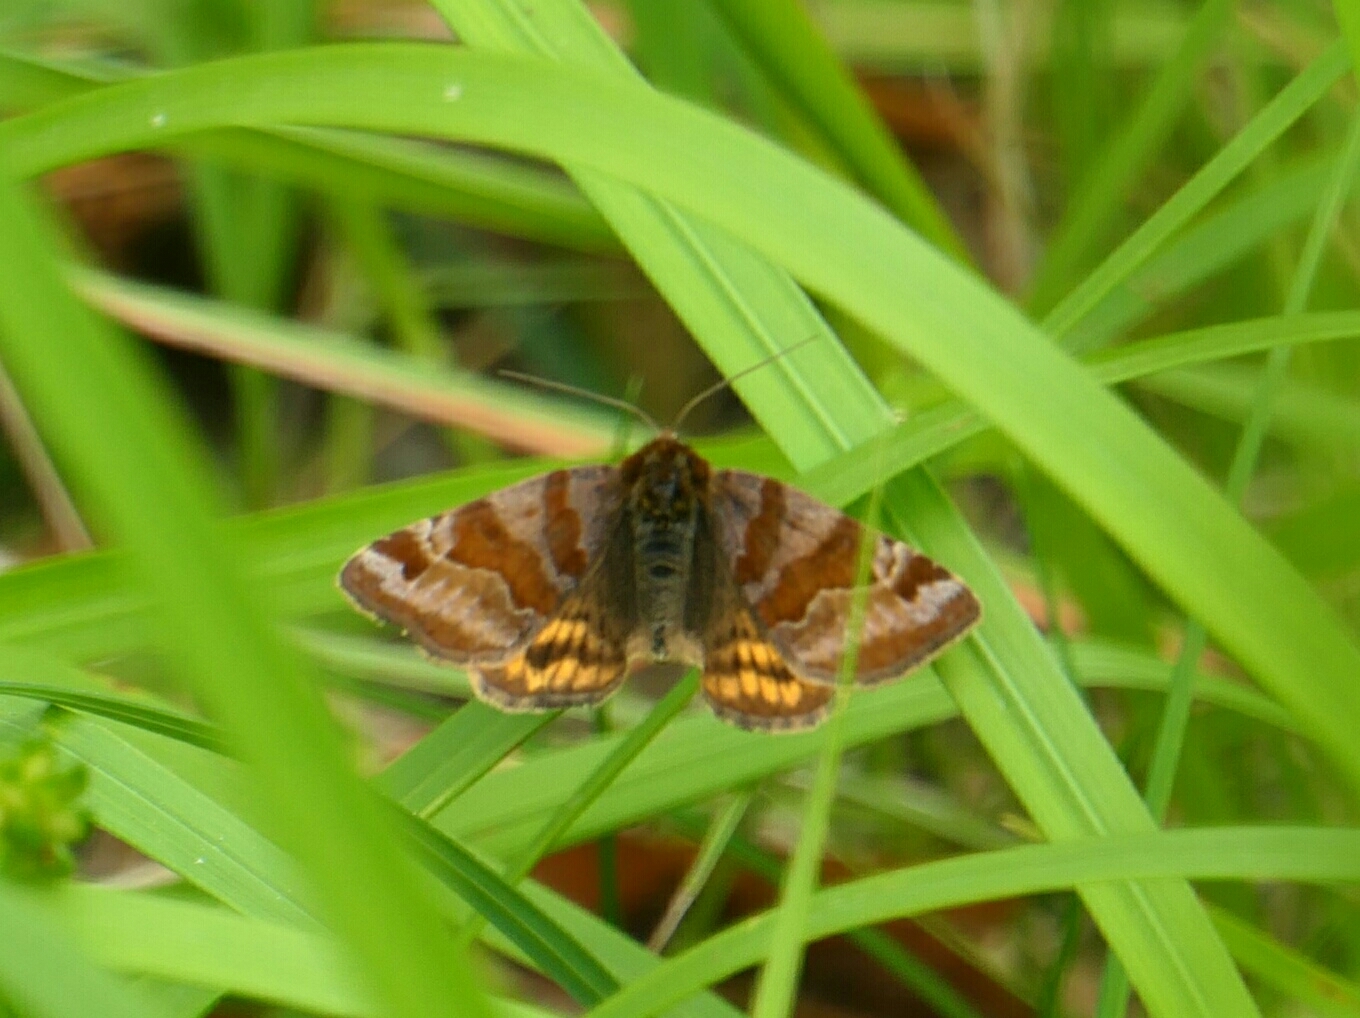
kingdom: Animalia
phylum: Arthropoda
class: Insecta
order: Lepidoptera
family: Erebidae
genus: Euclidia
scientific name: Euclidia glyphica
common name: Burnet companion
